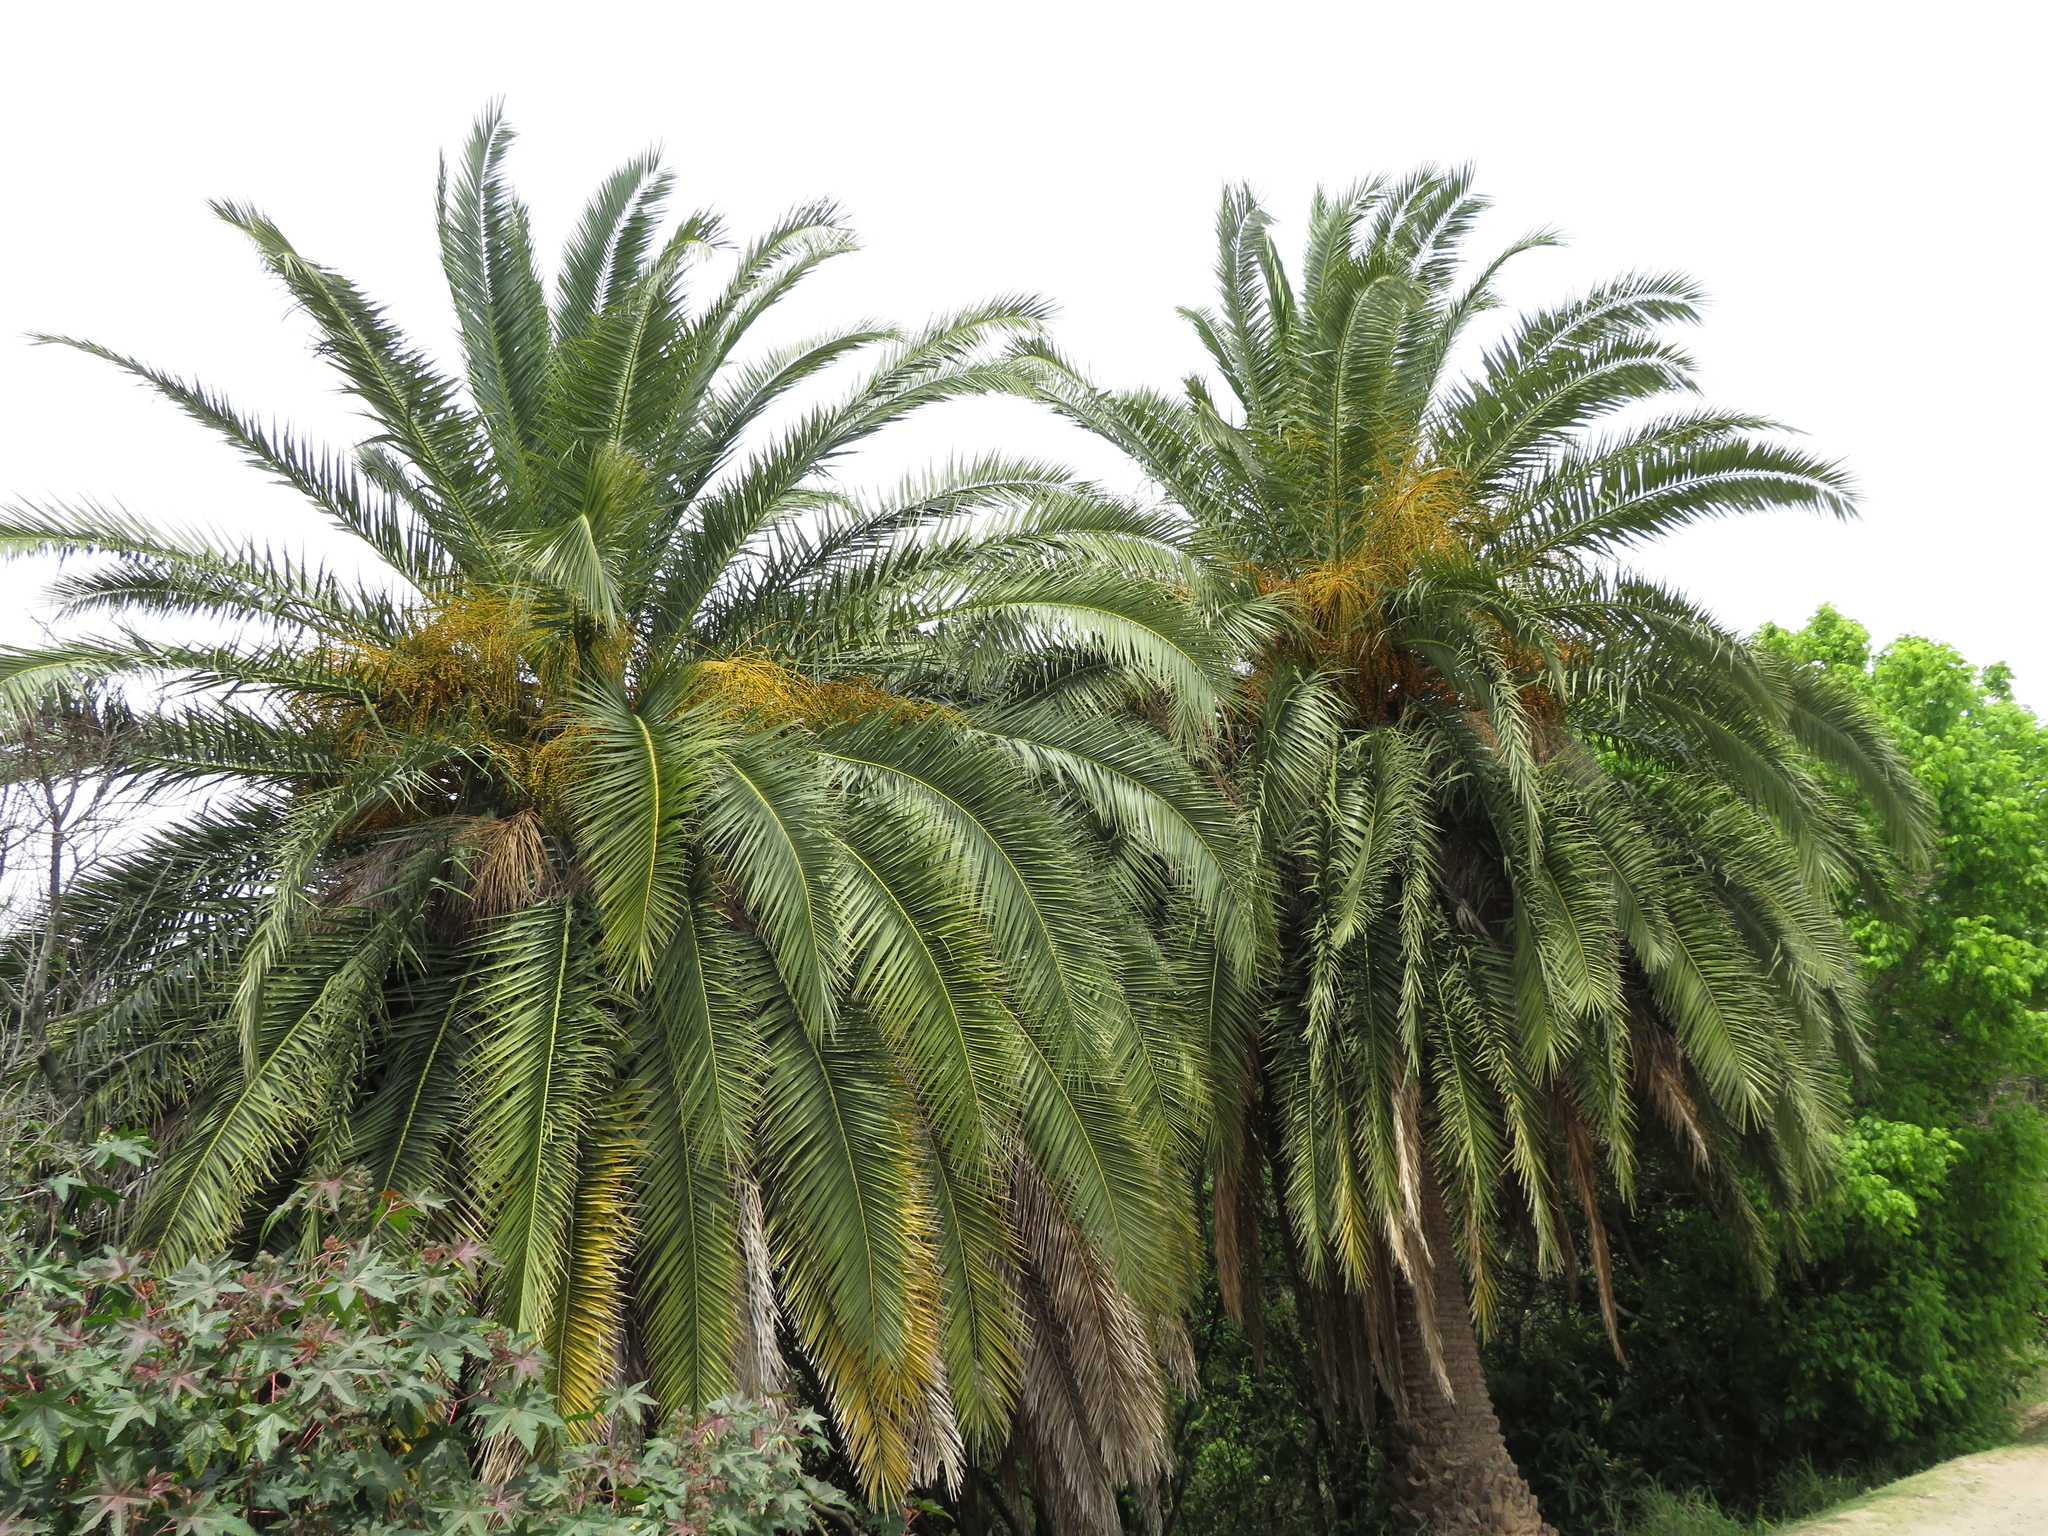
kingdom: Plantae
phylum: Tracheophyta
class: Liliopsida
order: Arecales
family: Arecaceae
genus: Phoenix
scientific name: Phoenix canariensis
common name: Canary island date palm
